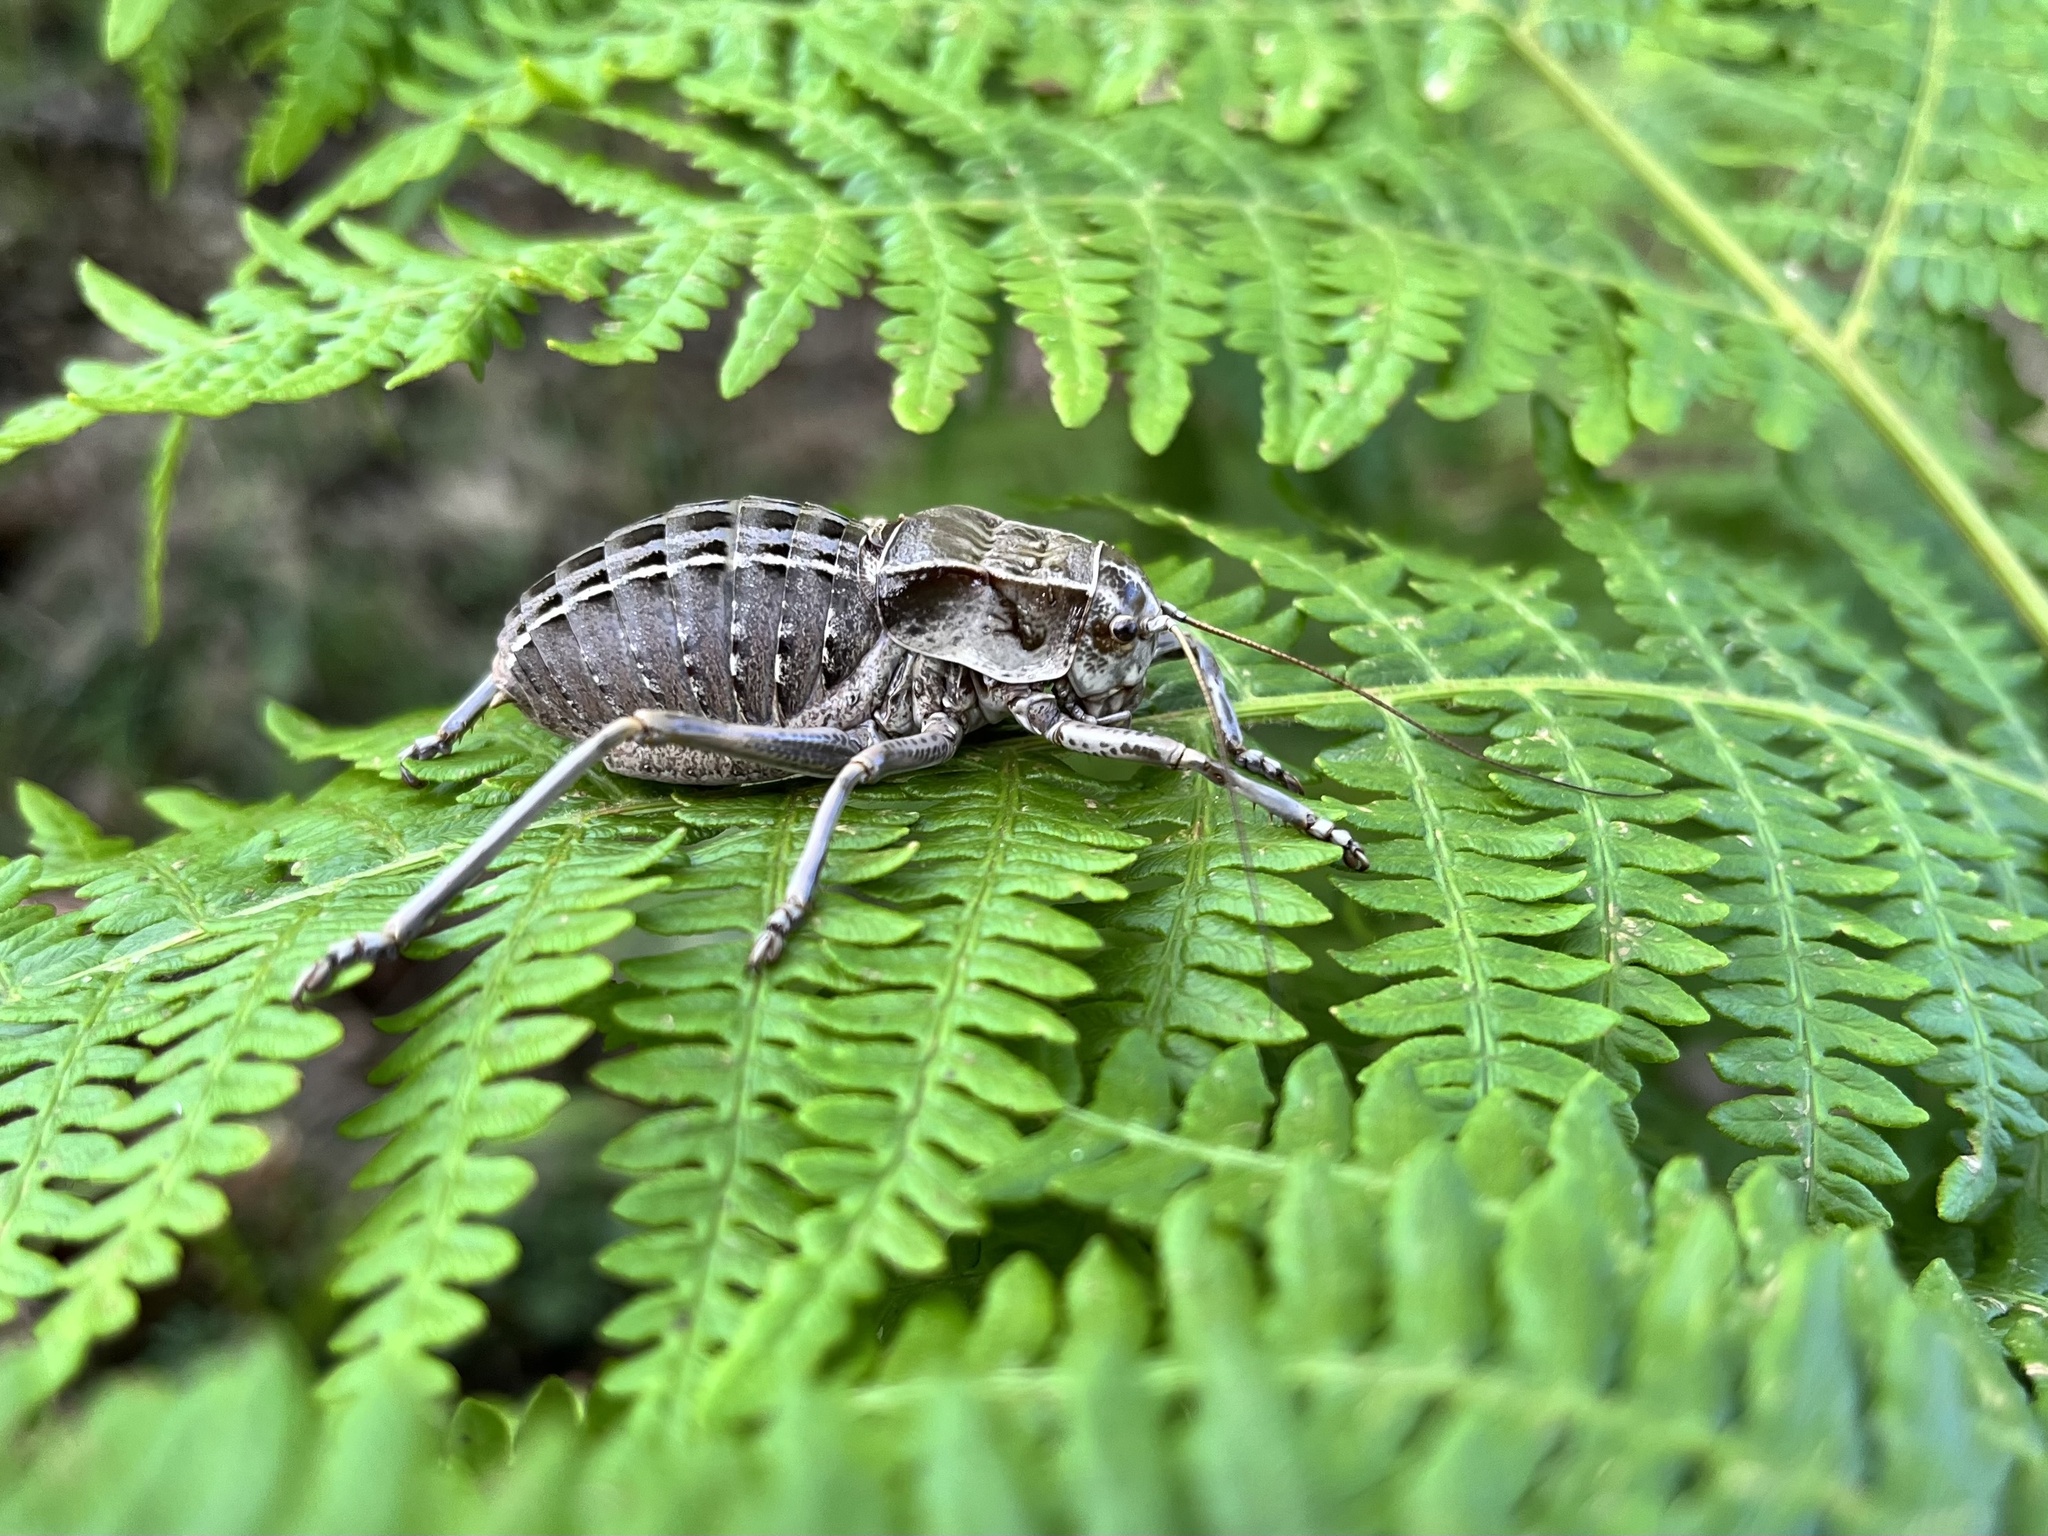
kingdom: Animalia
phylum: Arthropoda
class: Insecta
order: Orthoptera
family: Tettigoniidae
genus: Pycnogaster
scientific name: Pycnogaster sanchezgomezi
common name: Sanchez gomez's saddle bush-cricket
